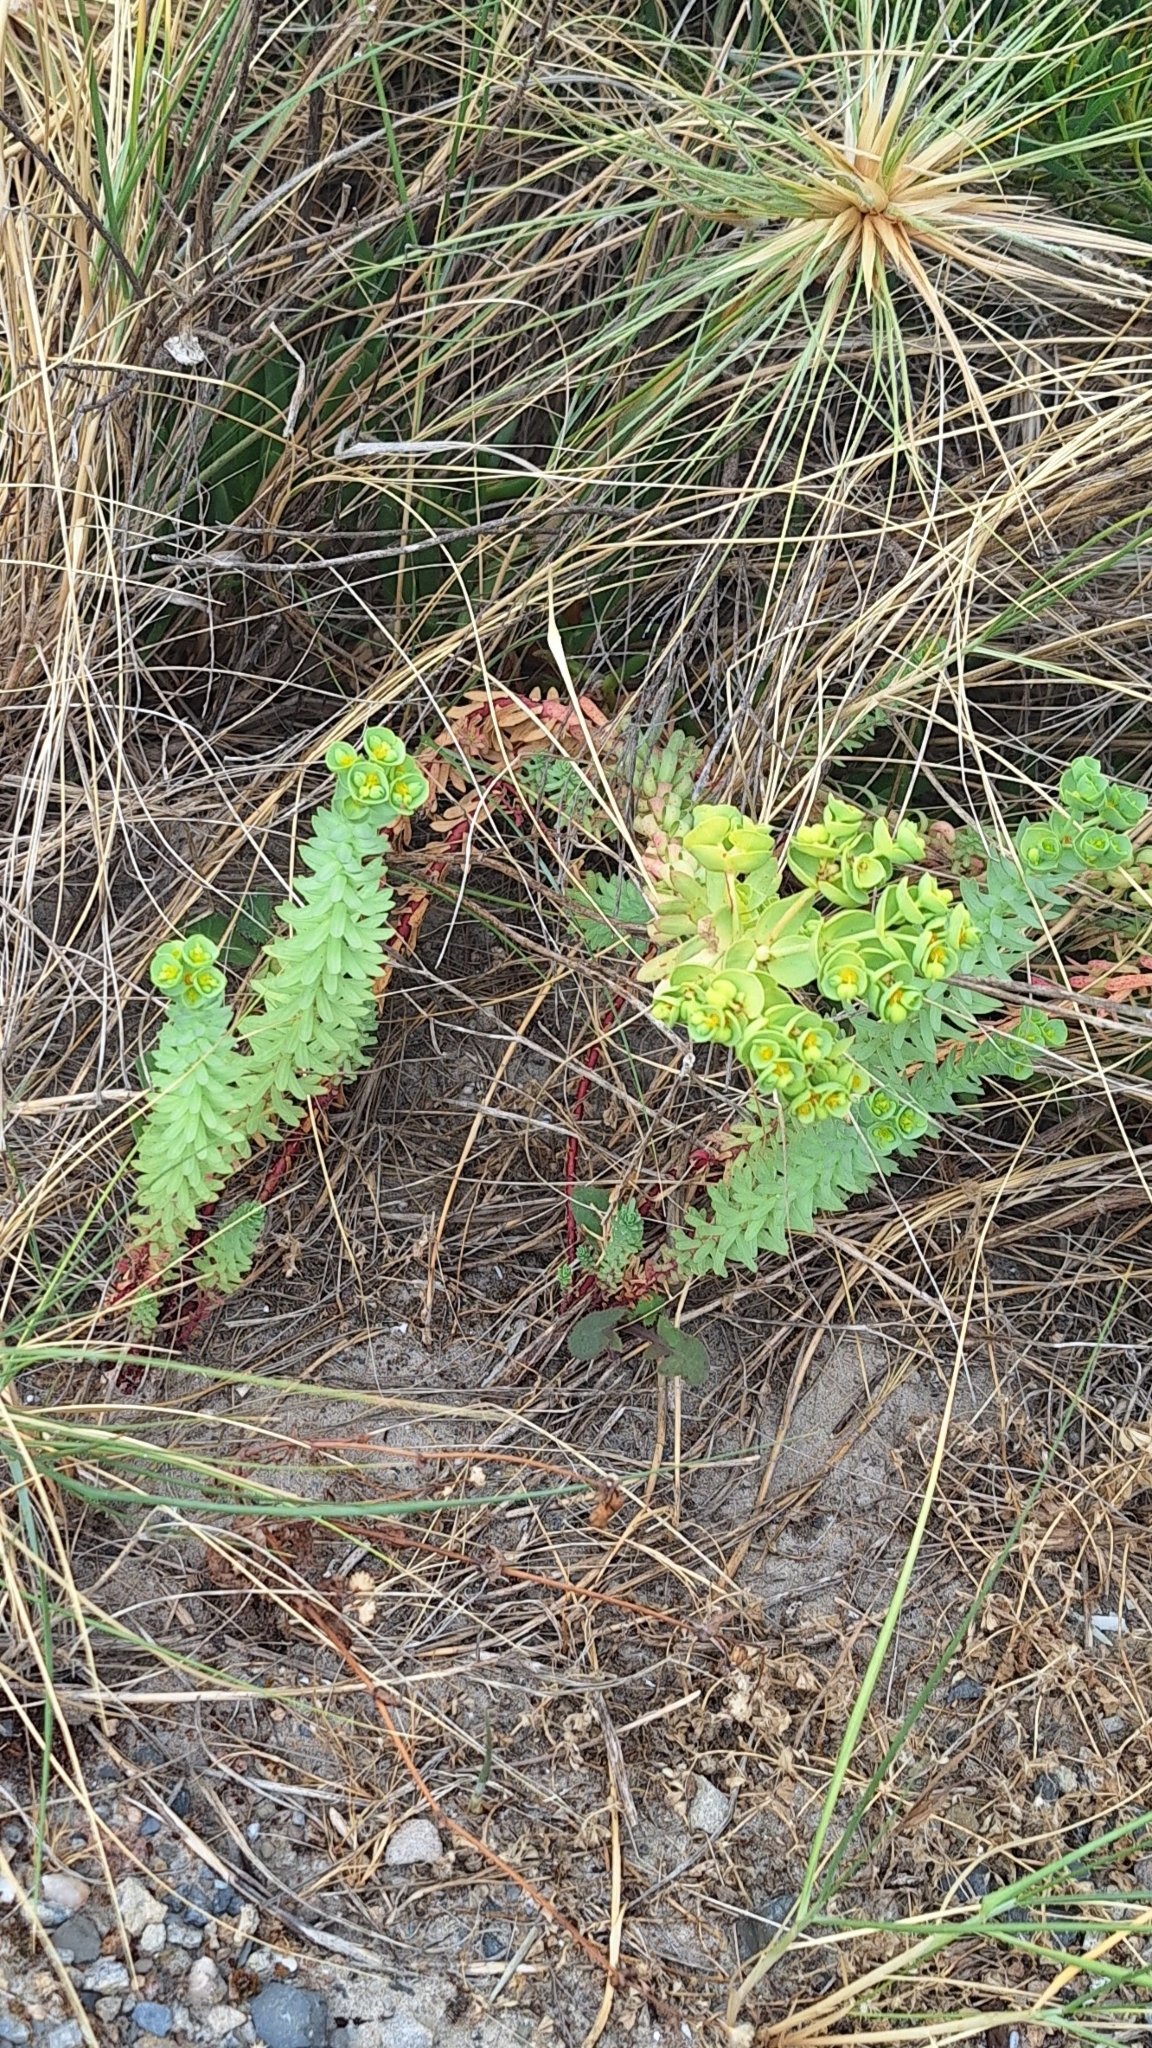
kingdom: Plantae
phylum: Tracheophyta
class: Magnoliopsida
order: Malpighiales
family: Euphorbiaceae
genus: Euphorbia
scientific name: Euphorbia paralias
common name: Sea spurge
